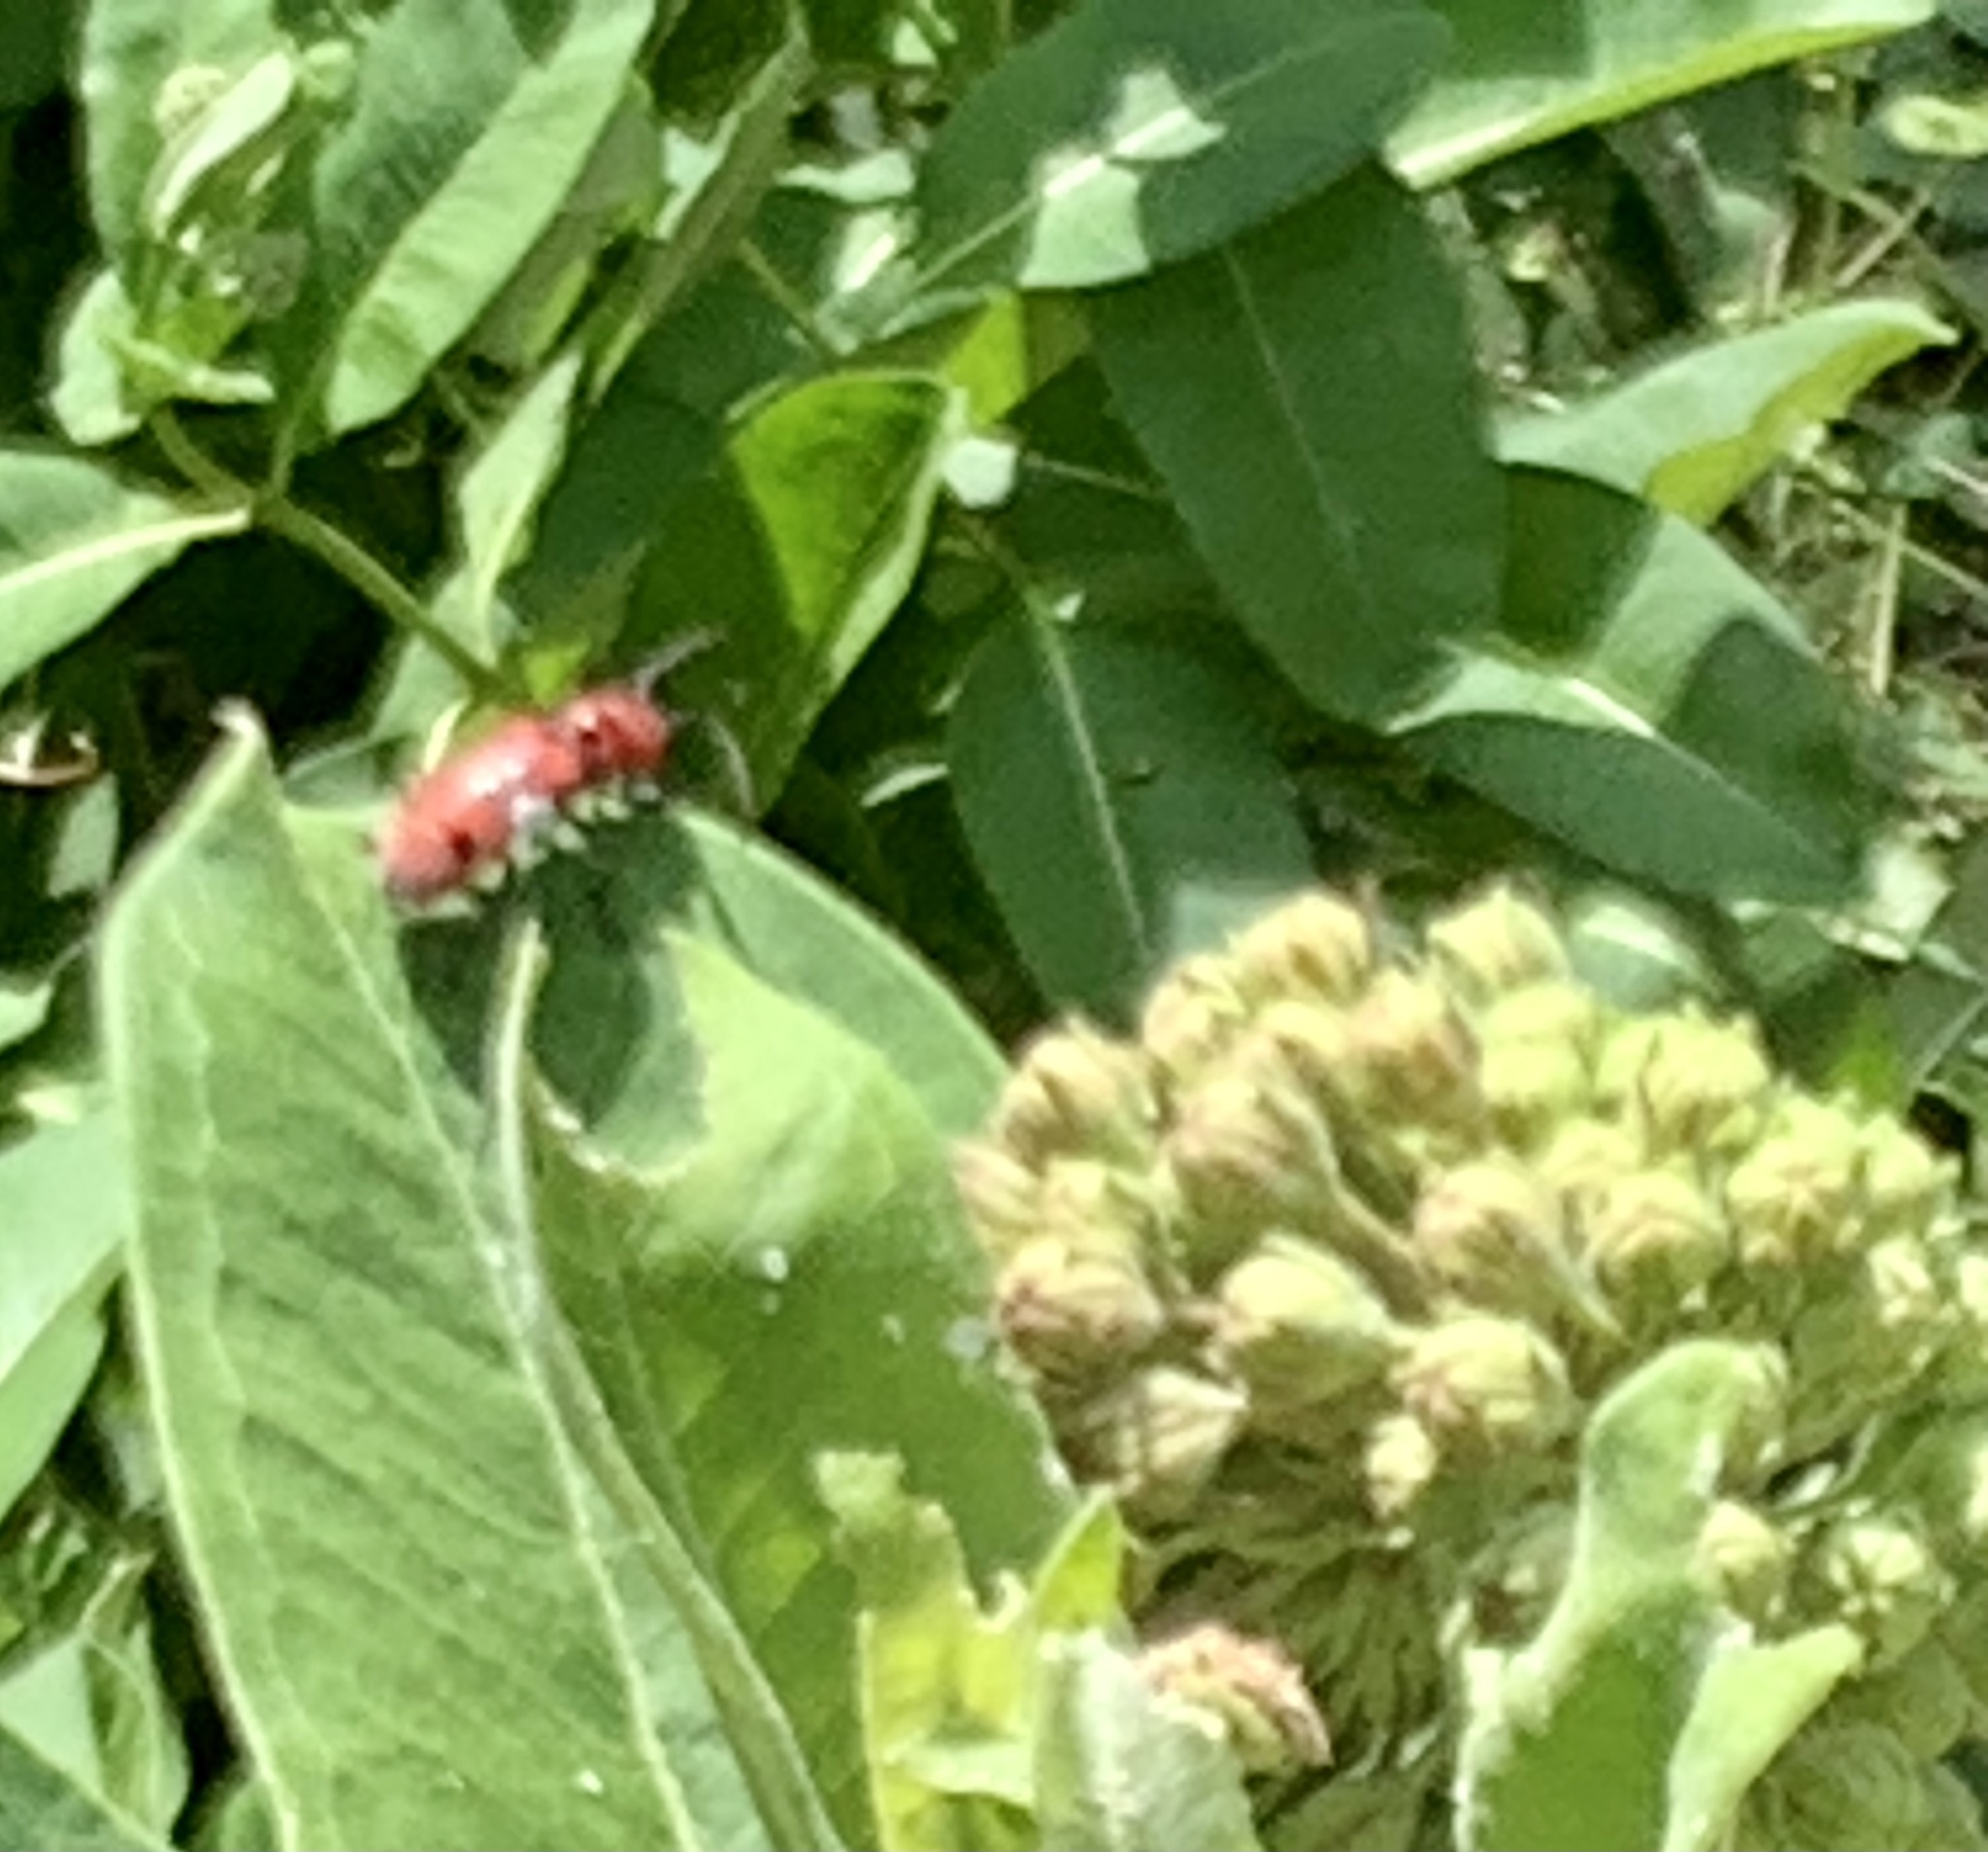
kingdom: Animalia
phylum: Arthropoda
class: Insecta
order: Coleoptera
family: Cerambycidae
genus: Tetraopes
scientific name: Tetraopes tetrophthalmus
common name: Red milkweed beetle
